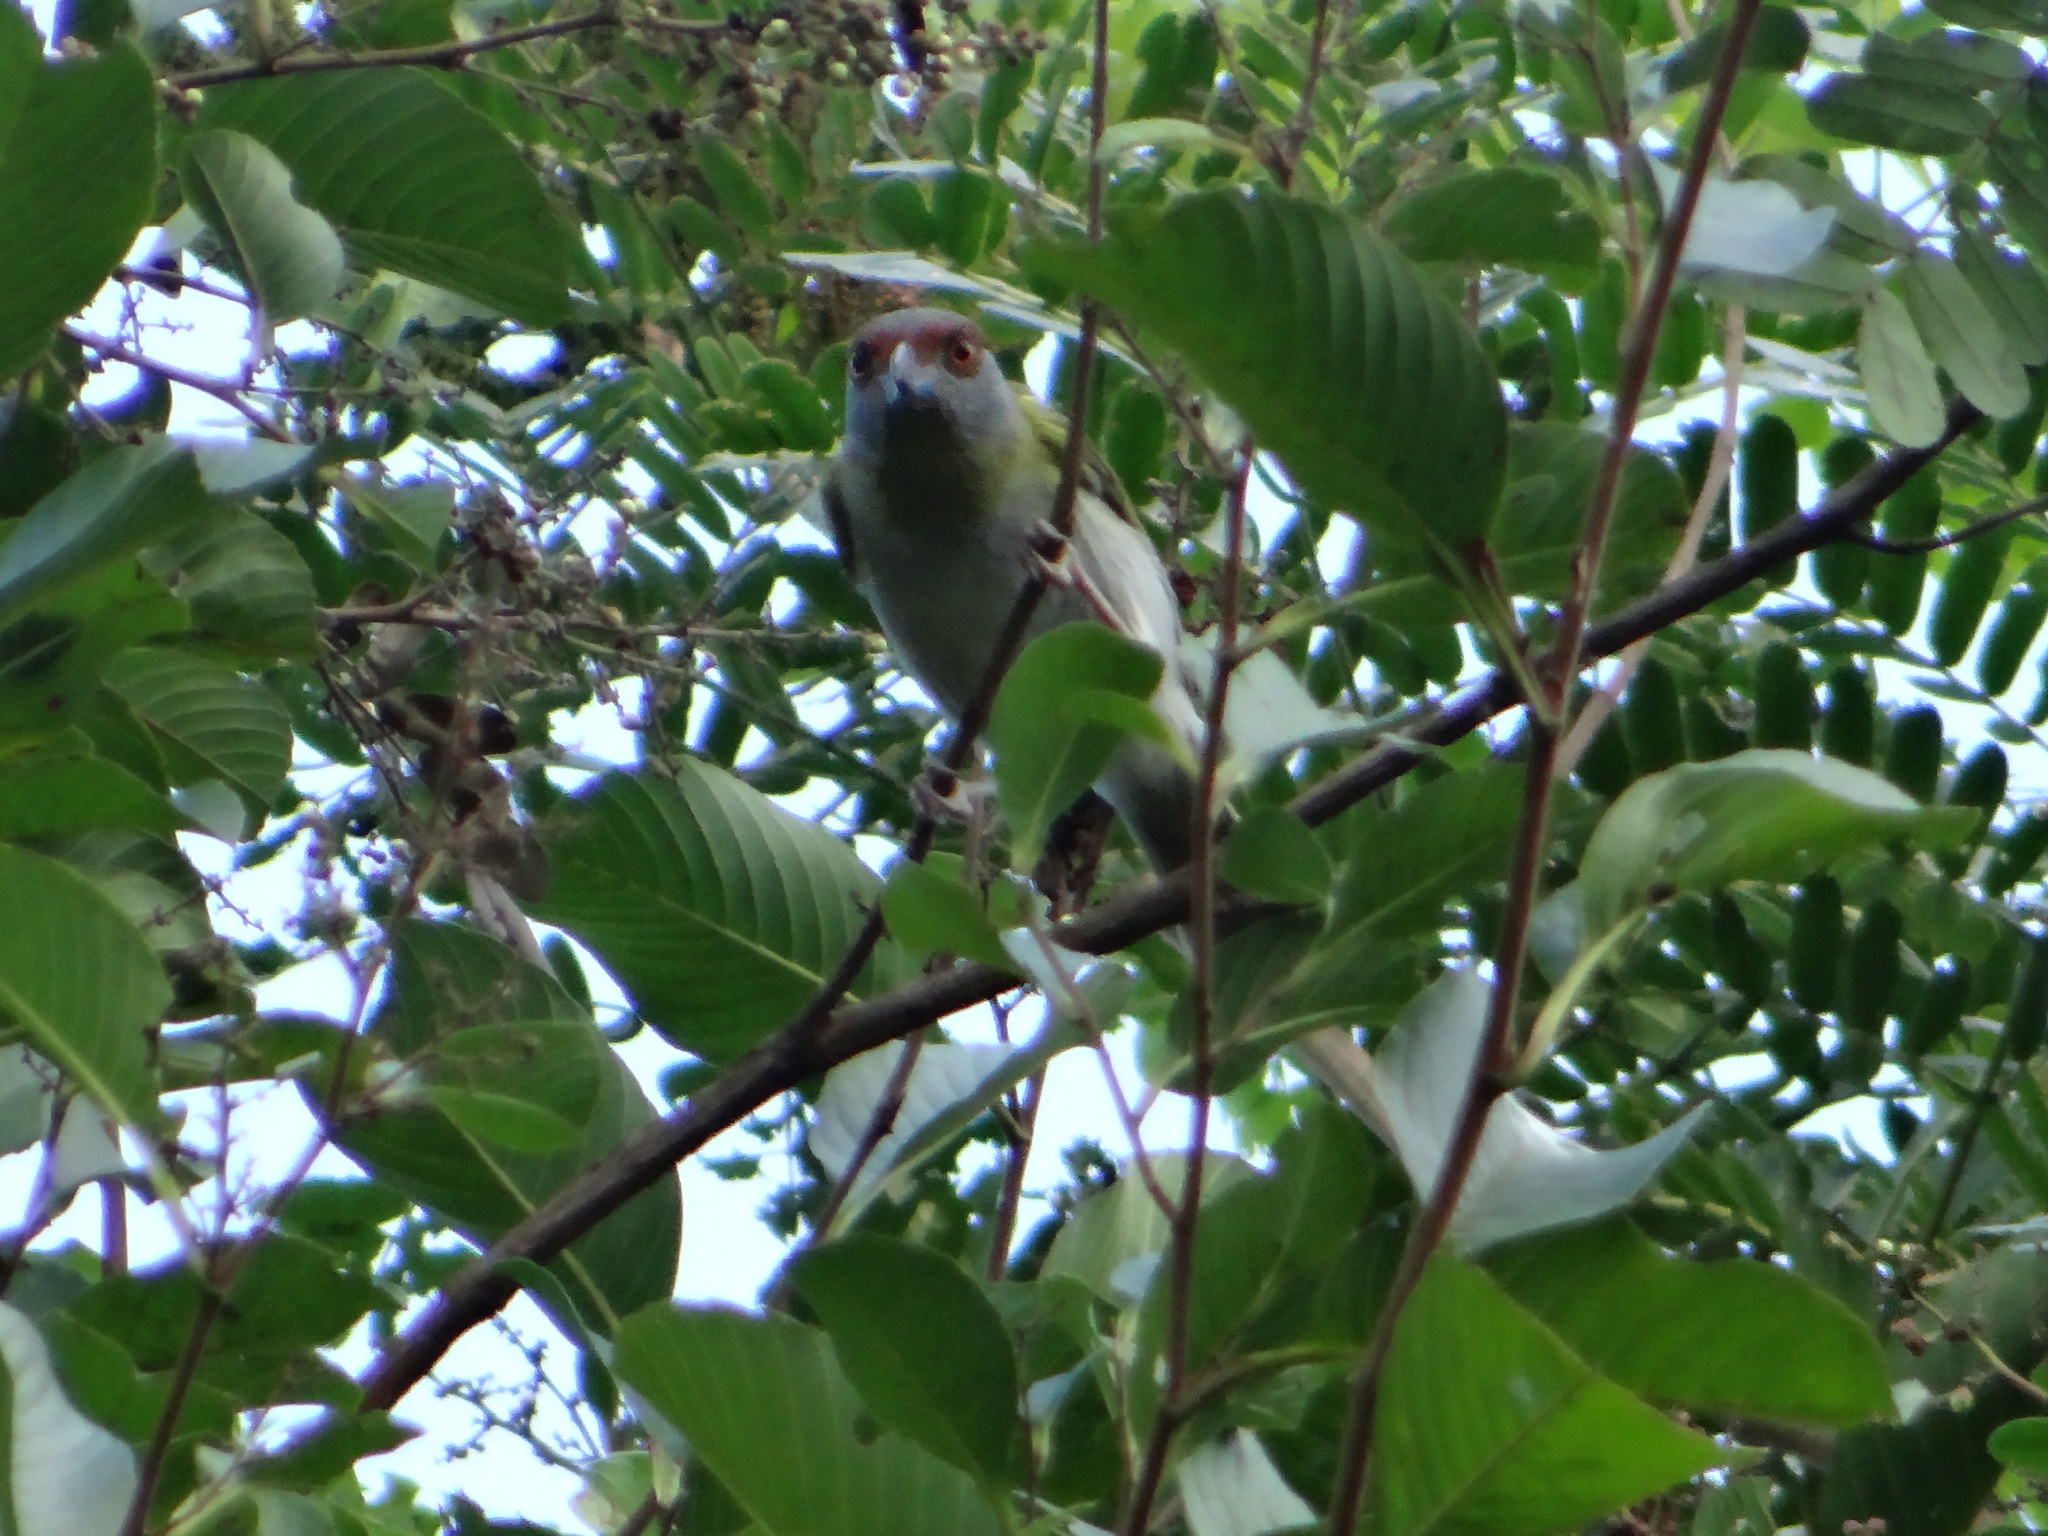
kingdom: Animalia
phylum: Chordata
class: Aves
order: Passeriformes
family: Vireonidae
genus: Cyclarhis
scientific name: Cyclarhis gujanensis
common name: Rufous-browed peppershrike
